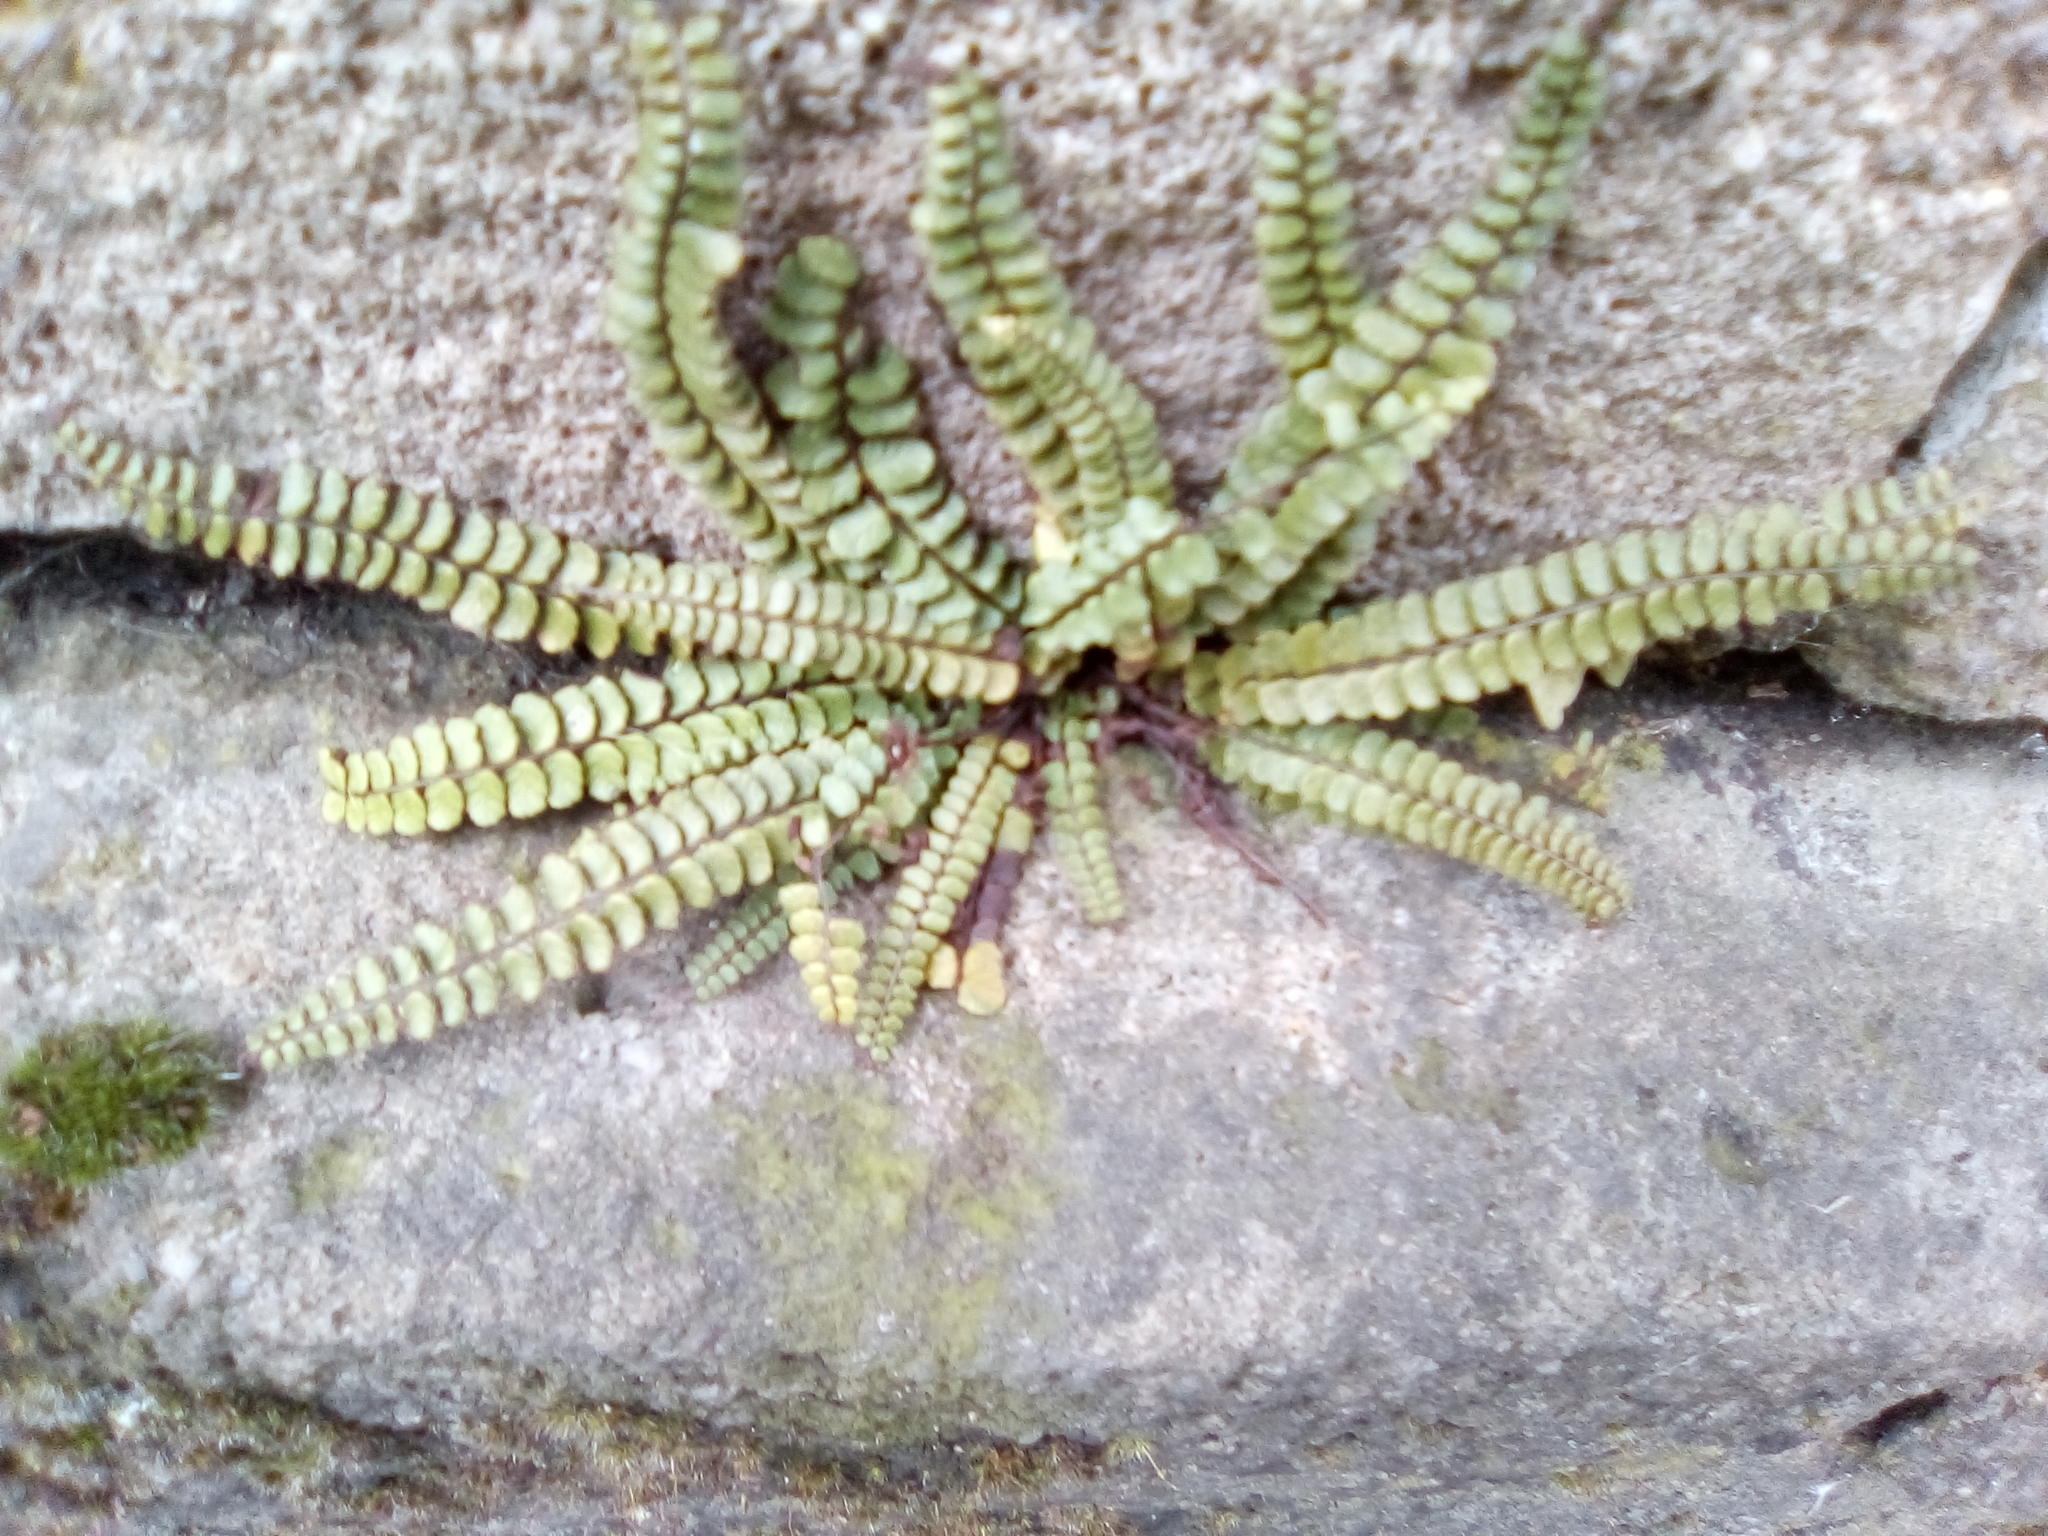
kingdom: Plantae
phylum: Tracheophyta
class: Polypodiopsida
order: Polypodiales
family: Aspleniaceae
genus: Asplenium
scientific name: Asplenium trichomanes
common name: Maidenhair spleenwort
